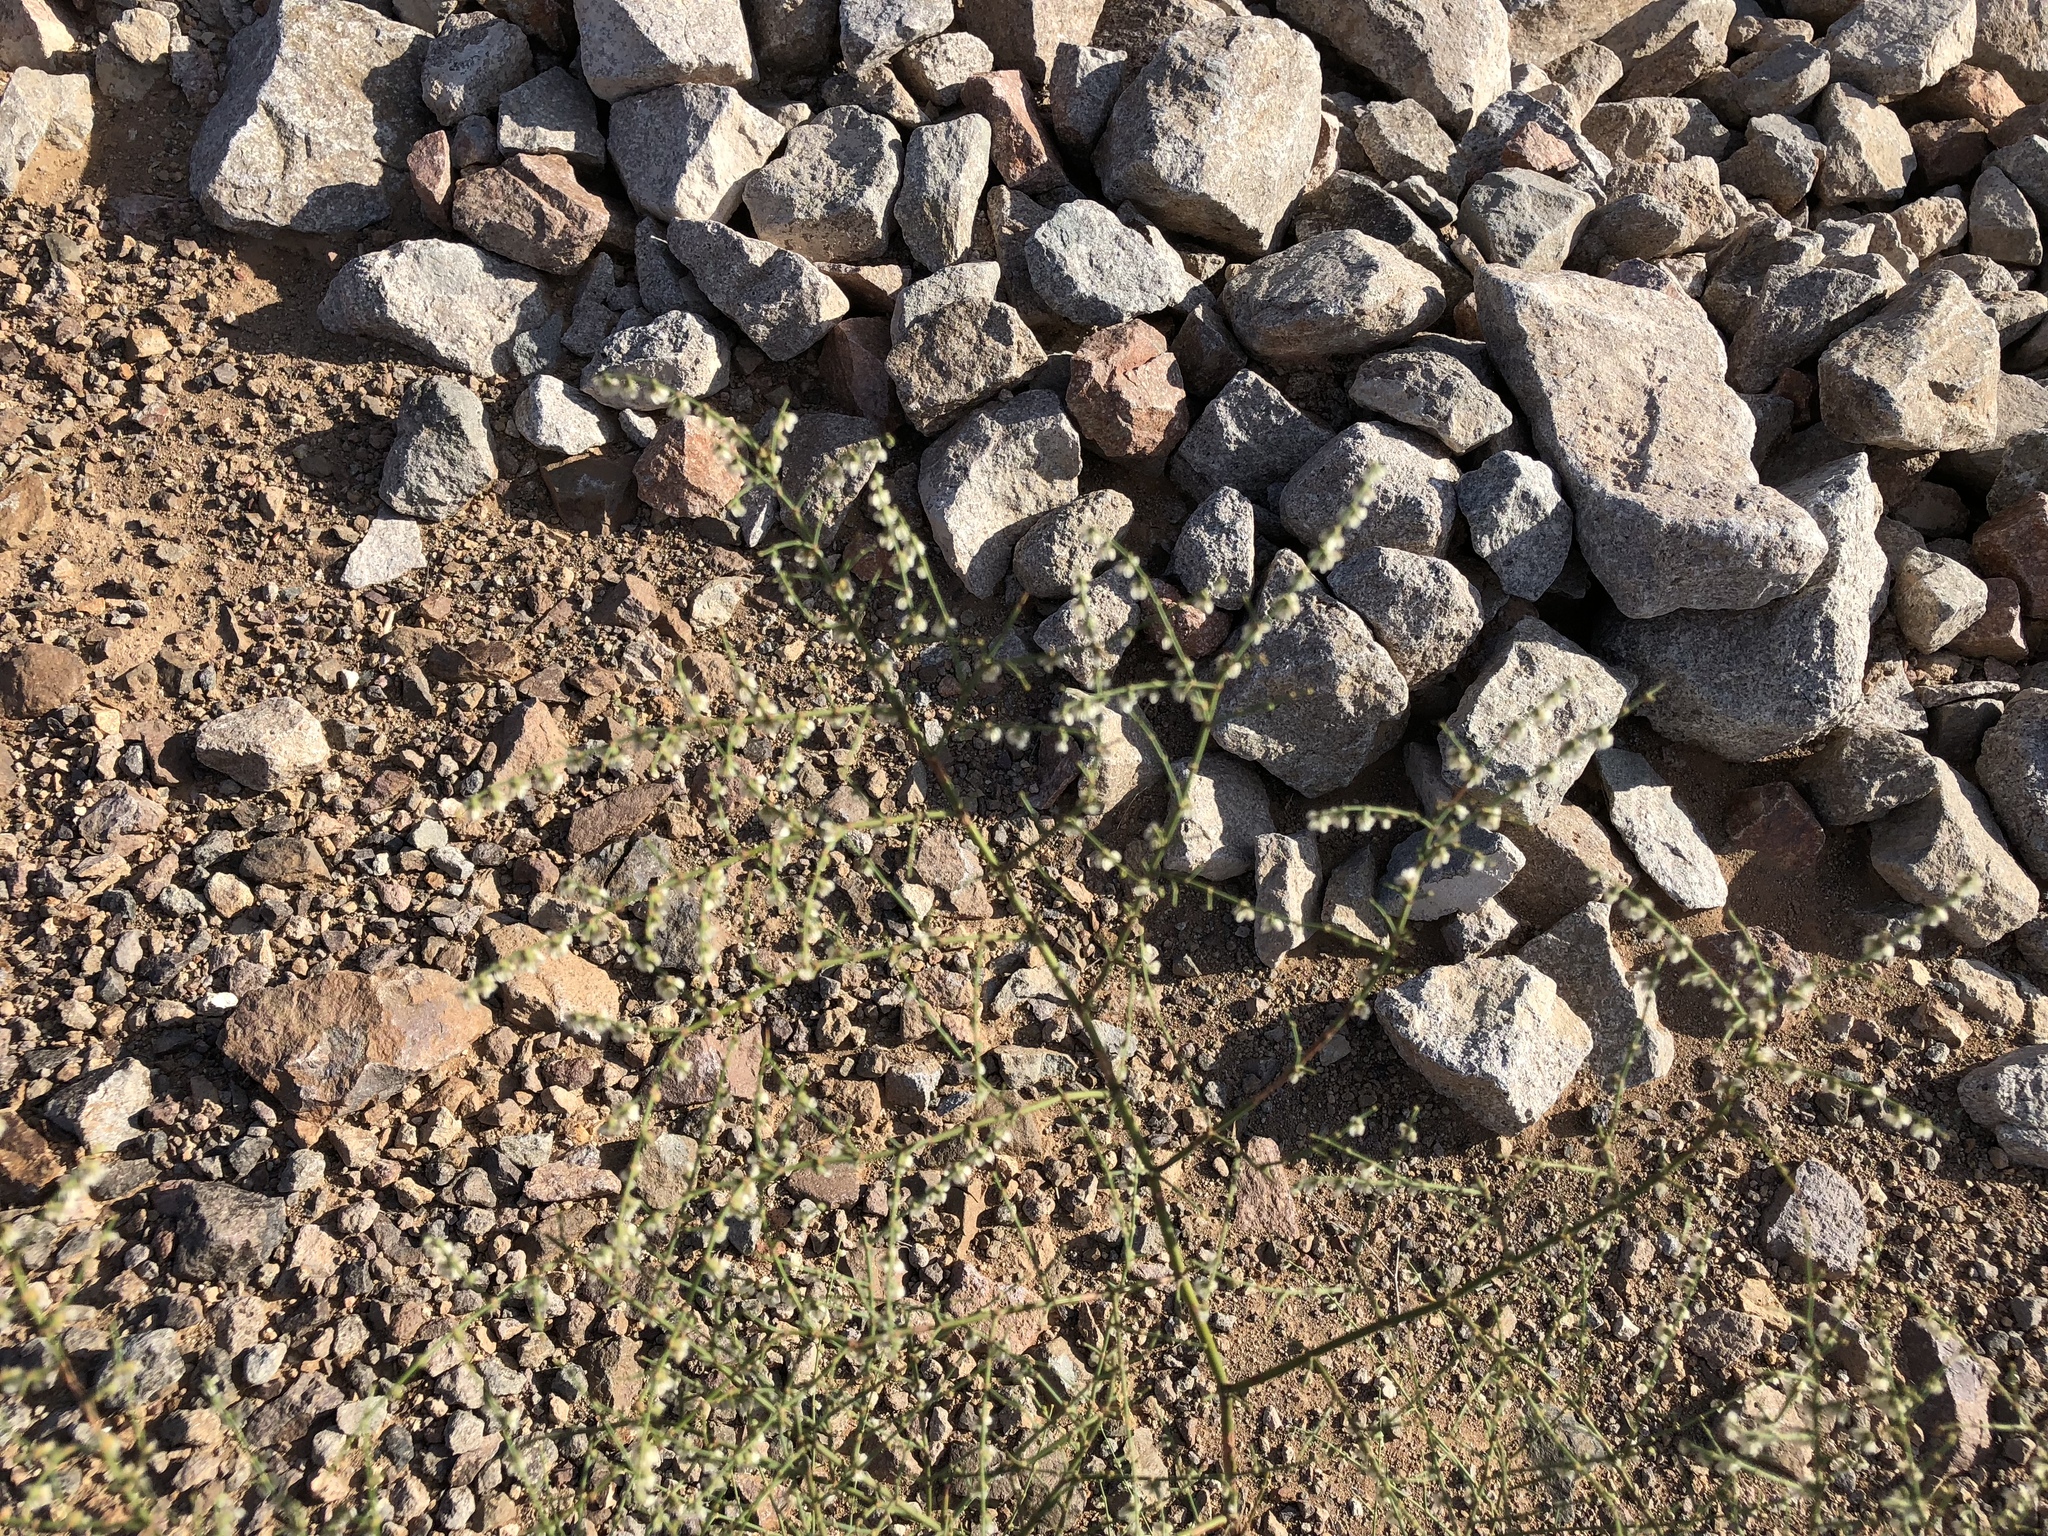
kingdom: Plantae
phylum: Tracheophyta
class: Magnoliopsida
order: Caryophyllales
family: Polygonaceae
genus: Eriogonum
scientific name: Eriogonum deflexum
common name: Skeleton-weed
